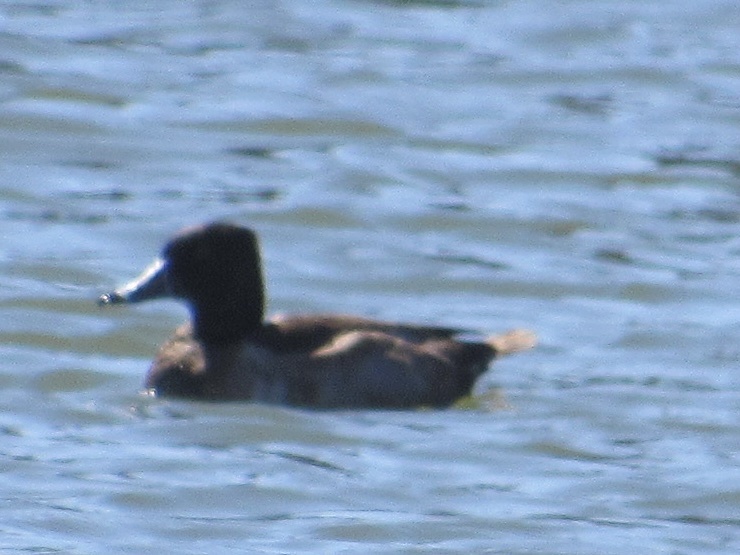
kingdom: Animalia
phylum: Chordata
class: Aves
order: Anseriformes
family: Anatidae
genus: Aythya
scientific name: Aythya collaris
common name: Ring-necked duck
